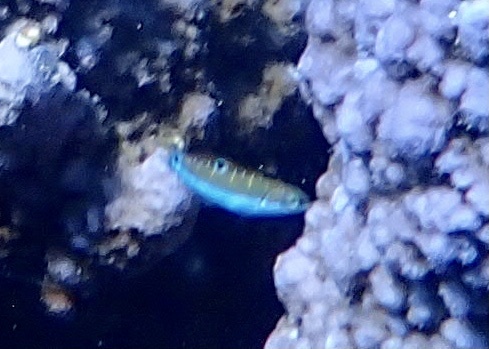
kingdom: Animalia
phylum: Chordata
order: Perciformes
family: Labridae
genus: Thalassoma
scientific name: Thalassoma lunare
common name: Blue wrasse
